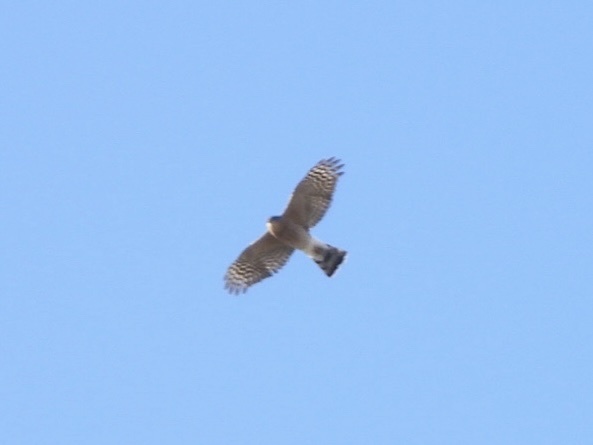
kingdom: Animalia
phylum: Chordata
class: Aves
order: Accipitriformes
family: Accipitridae
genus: Accipiter
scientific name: Accipiter striatus
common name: Sharp-shinned hawk
